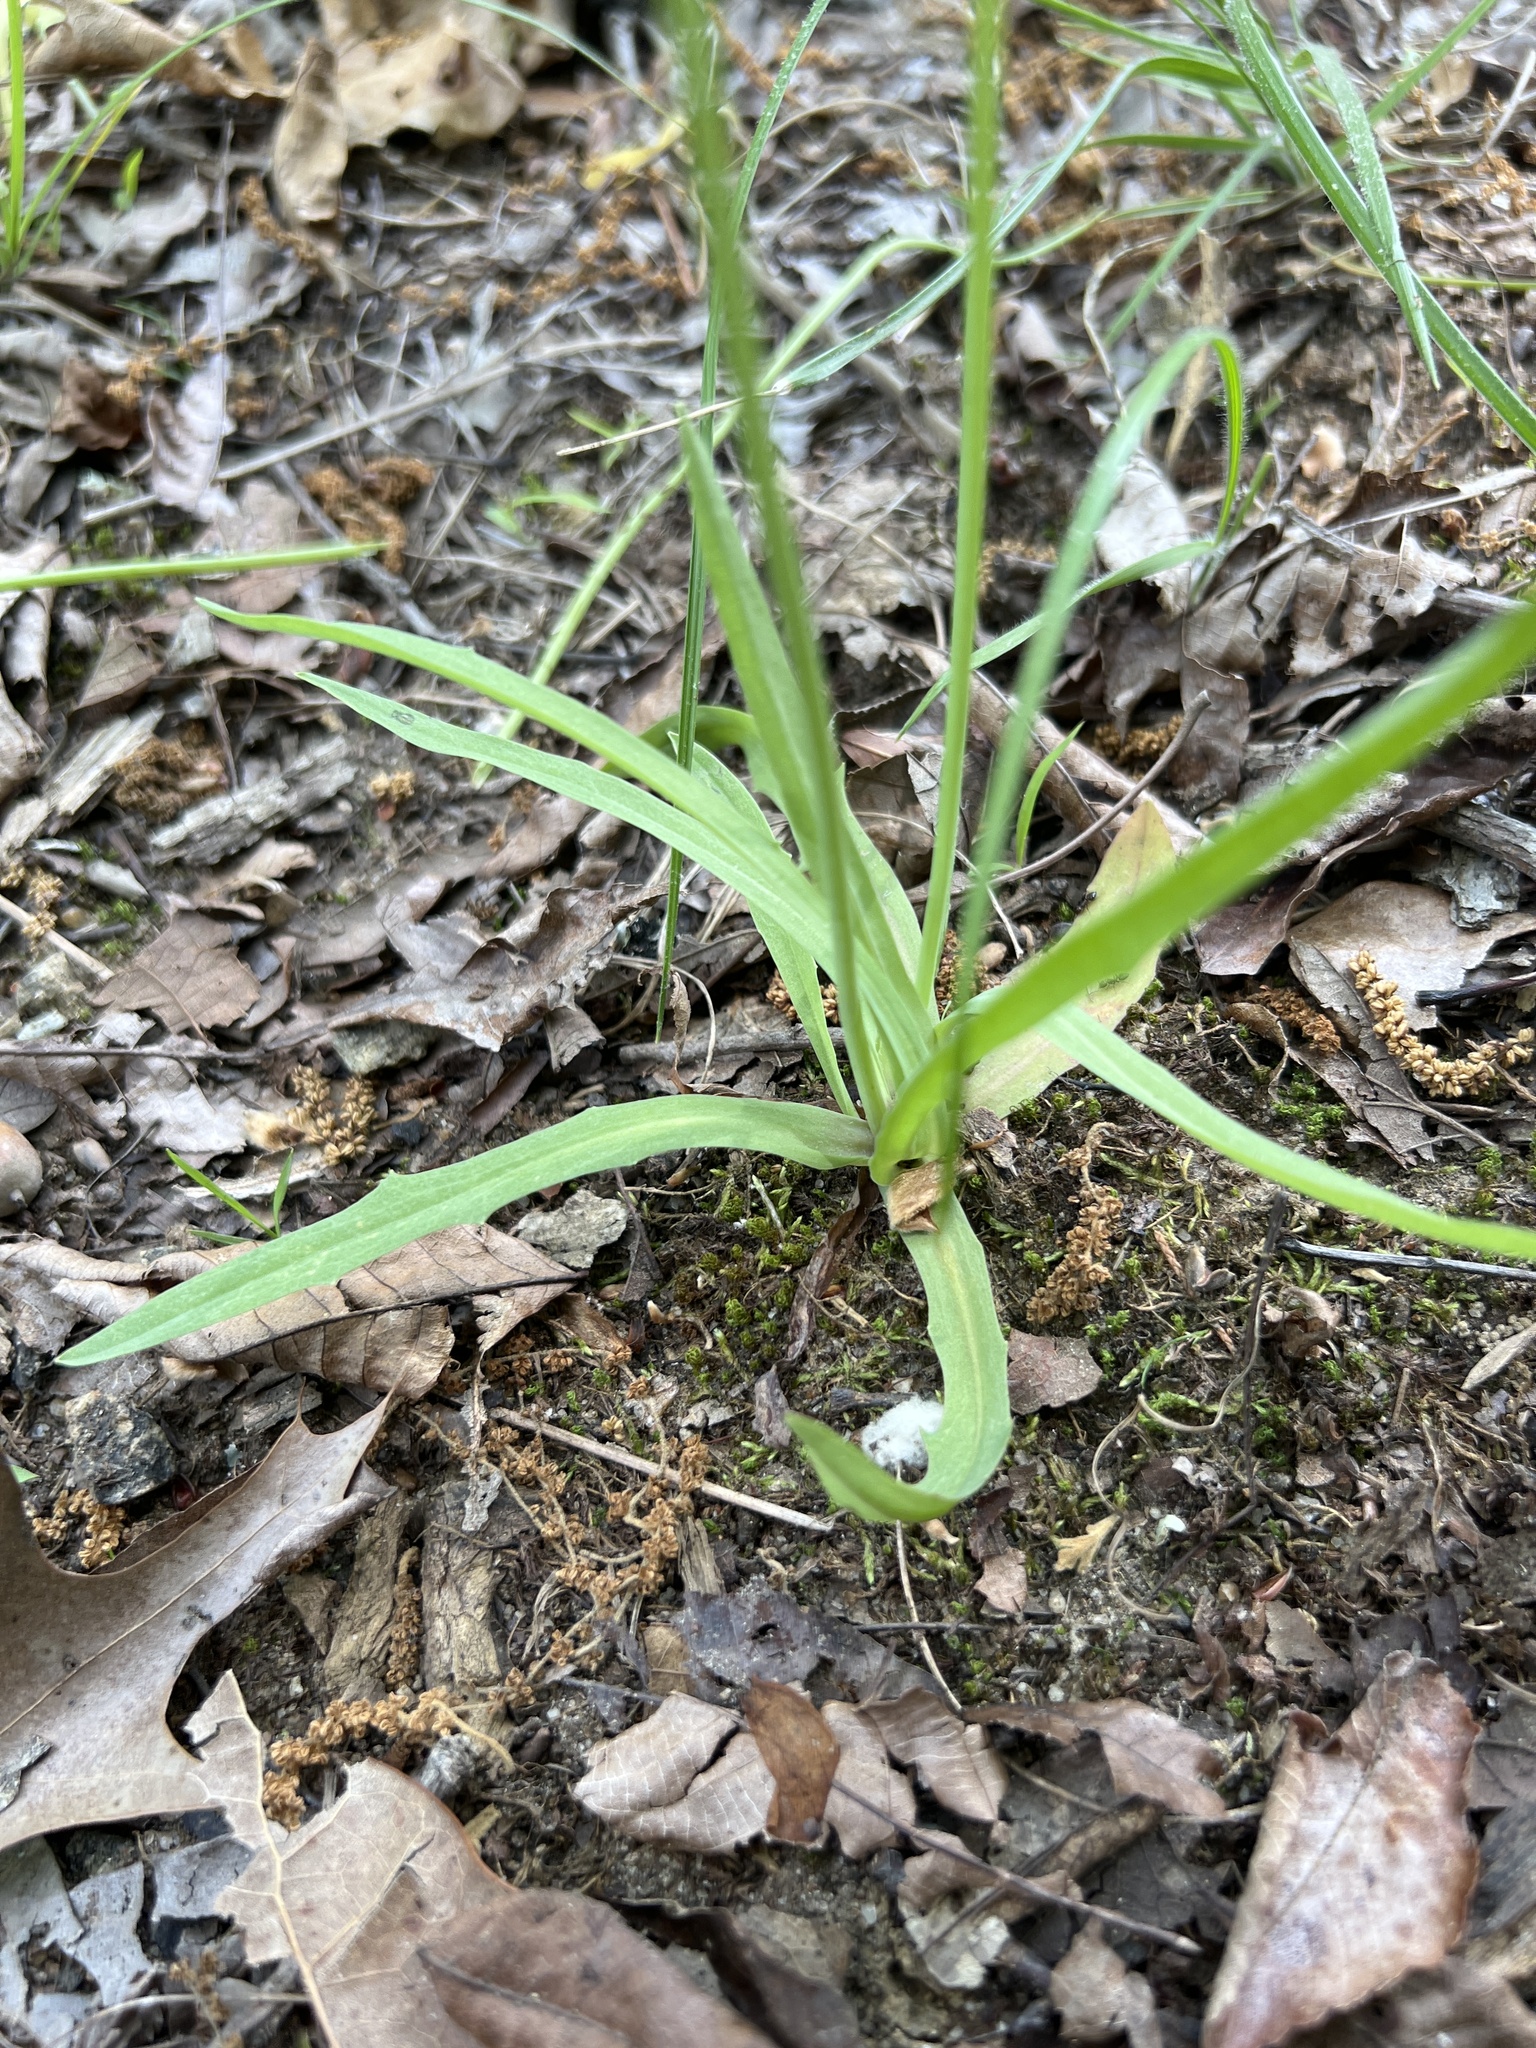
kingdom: Plantae
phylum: Tracheophyta
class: Magnoliopsida
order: Asterales
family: Asteraceae
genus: Krigia
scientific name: Krigia dandelion
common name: Colonial dwarf-dandelion
